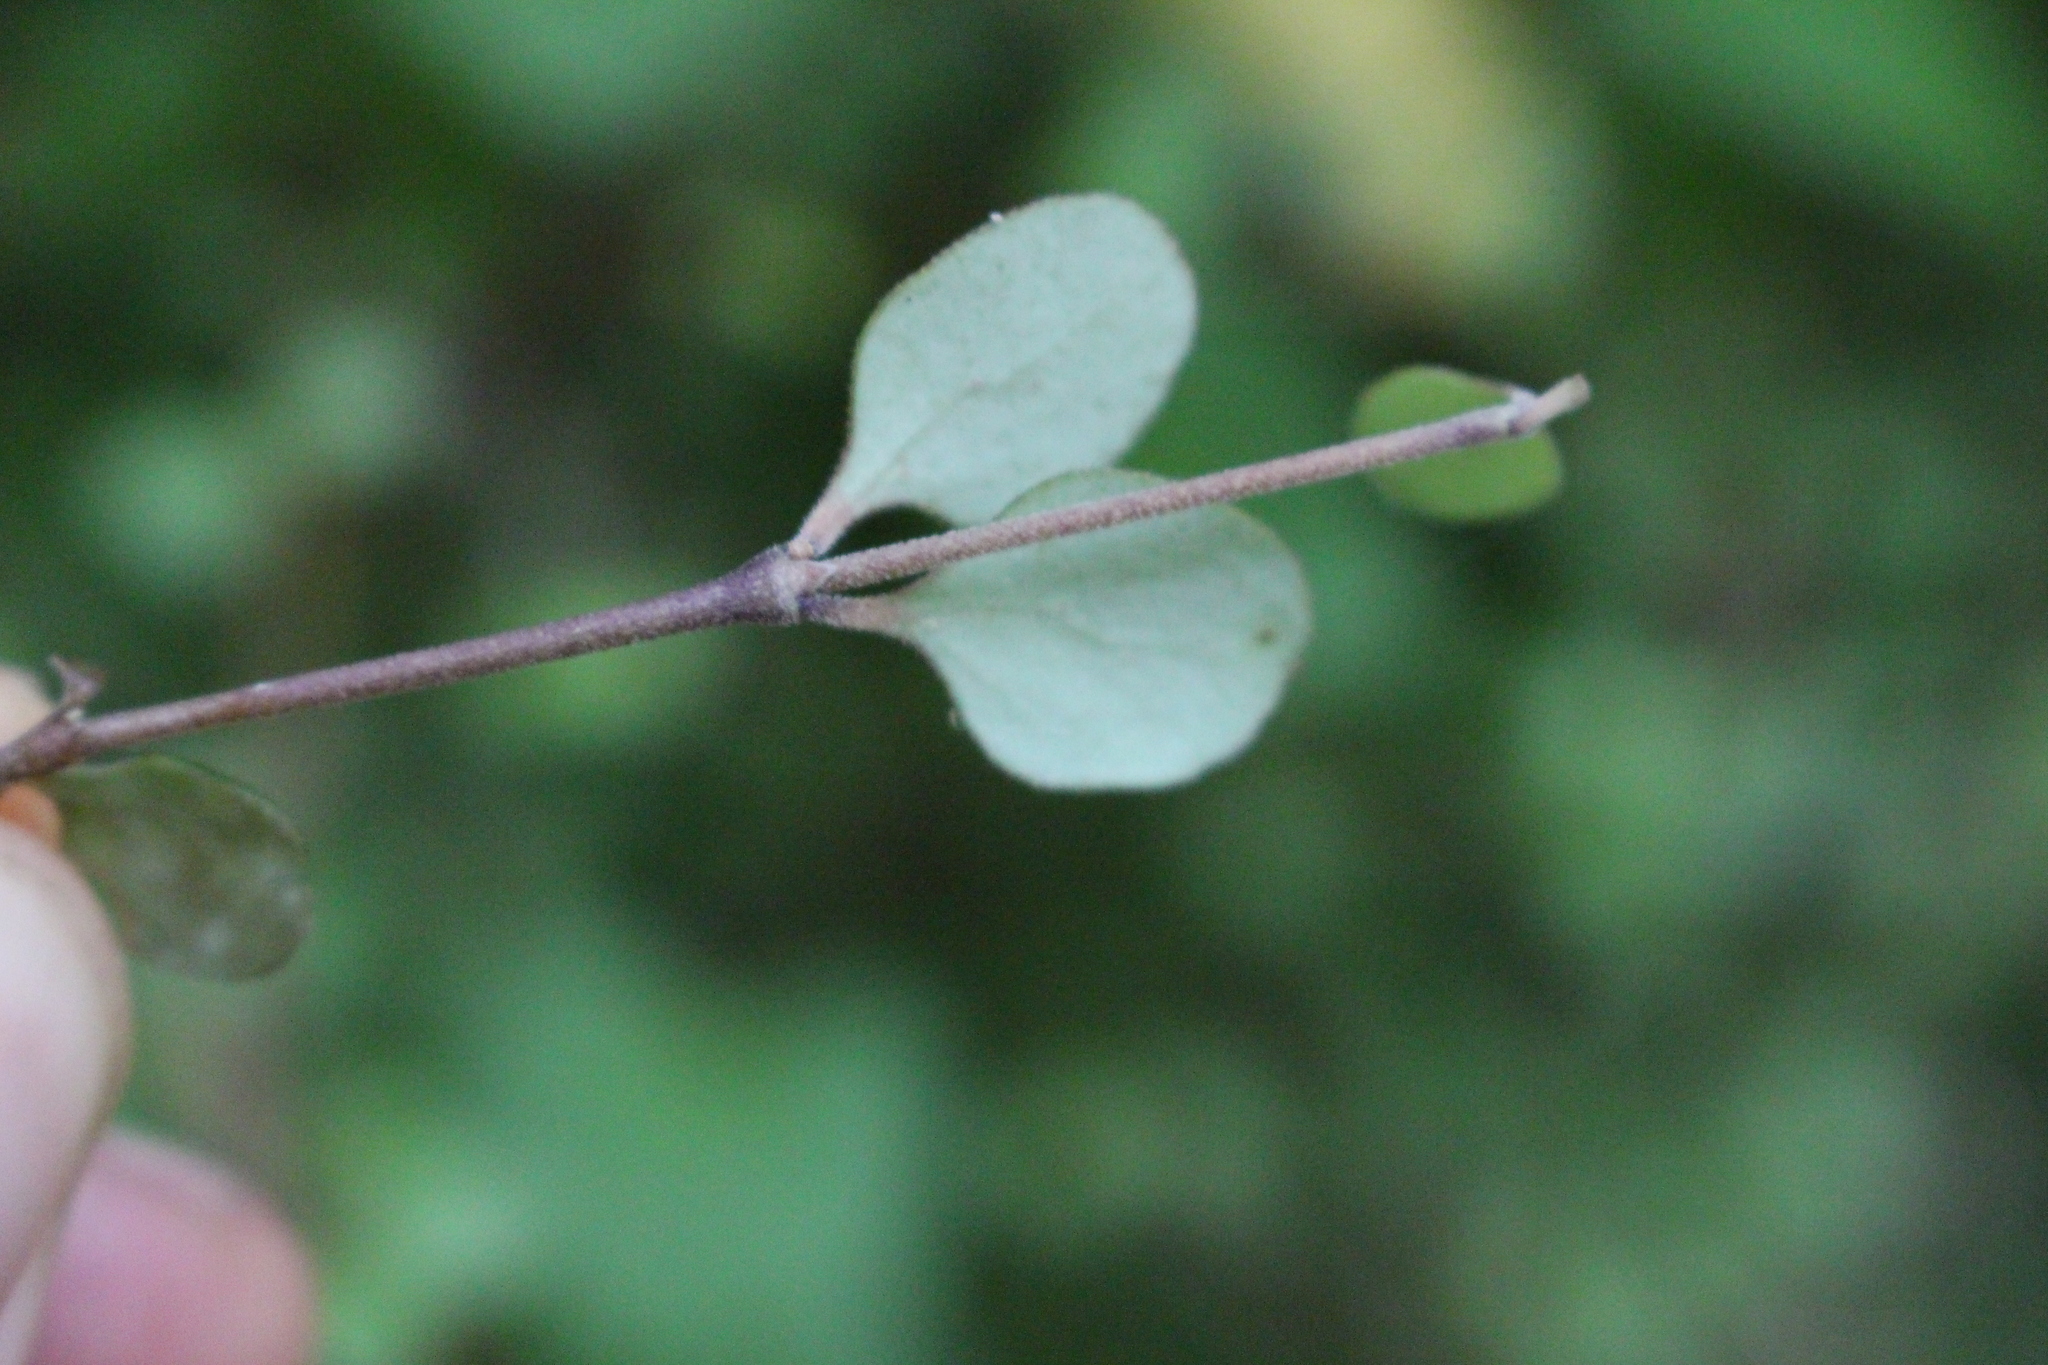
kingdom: Plantae
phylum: Tracheophyta
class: Magnoliopsida
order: Gentianales
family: Rubiaceae
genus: Coprosma
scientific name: Coprosma crassifolia
